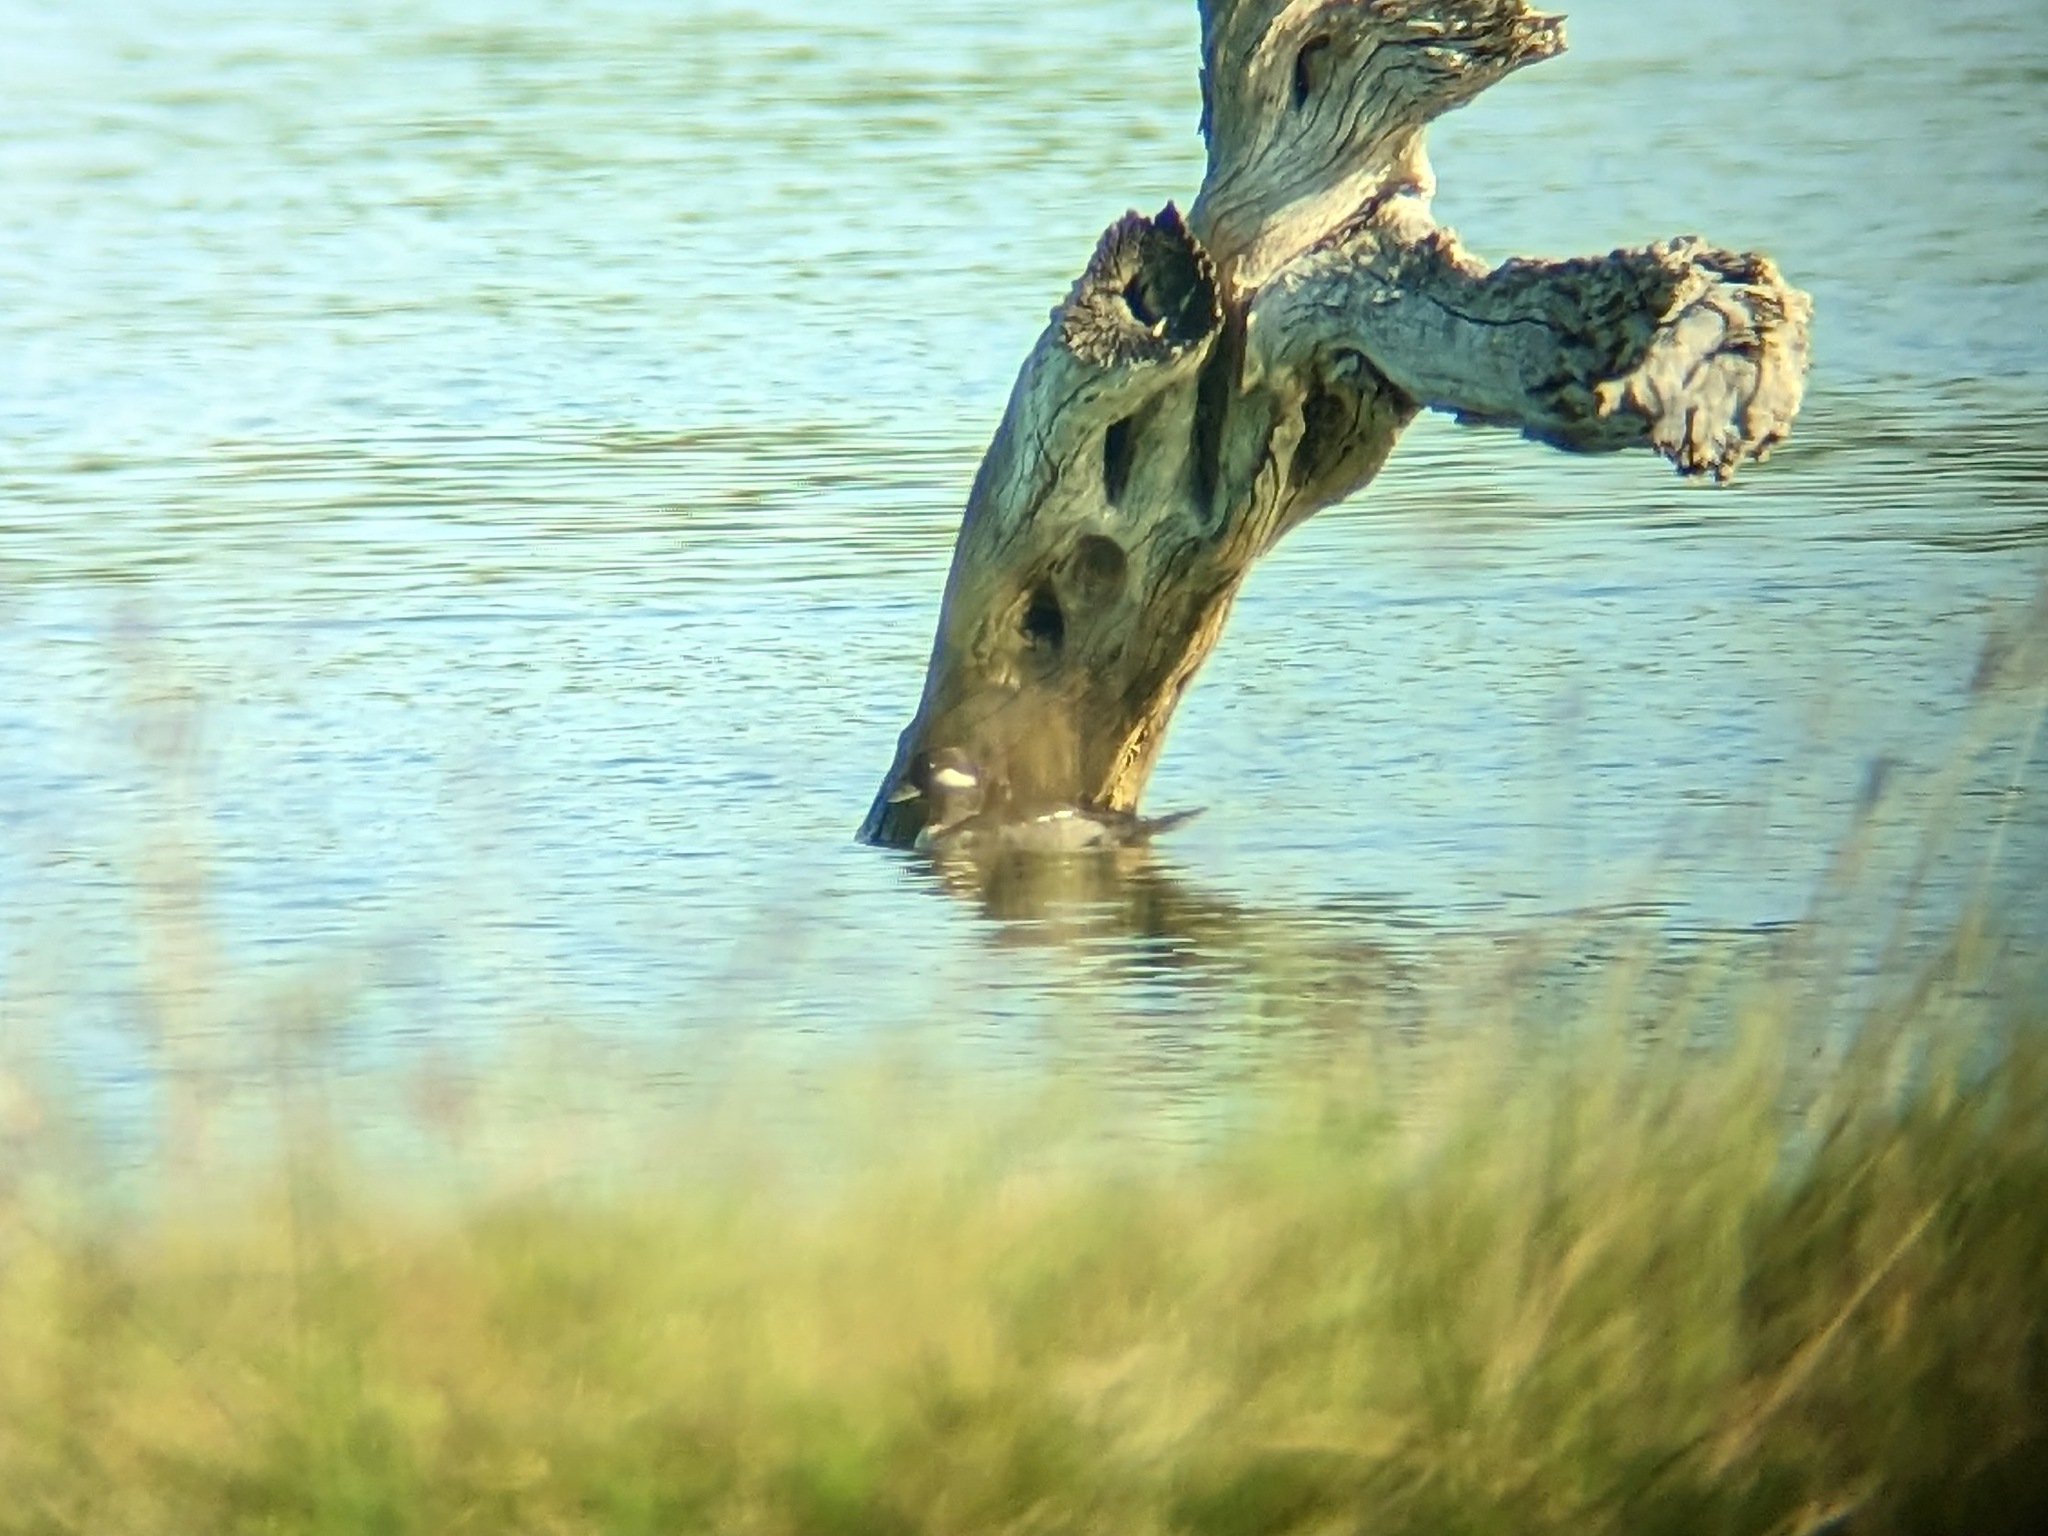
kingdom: Animalia
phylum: Chordata
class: Aves
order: Anseriformes
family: Anatidae
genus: Bucephala
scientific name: Bucephala albeola
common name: Bufflehead
